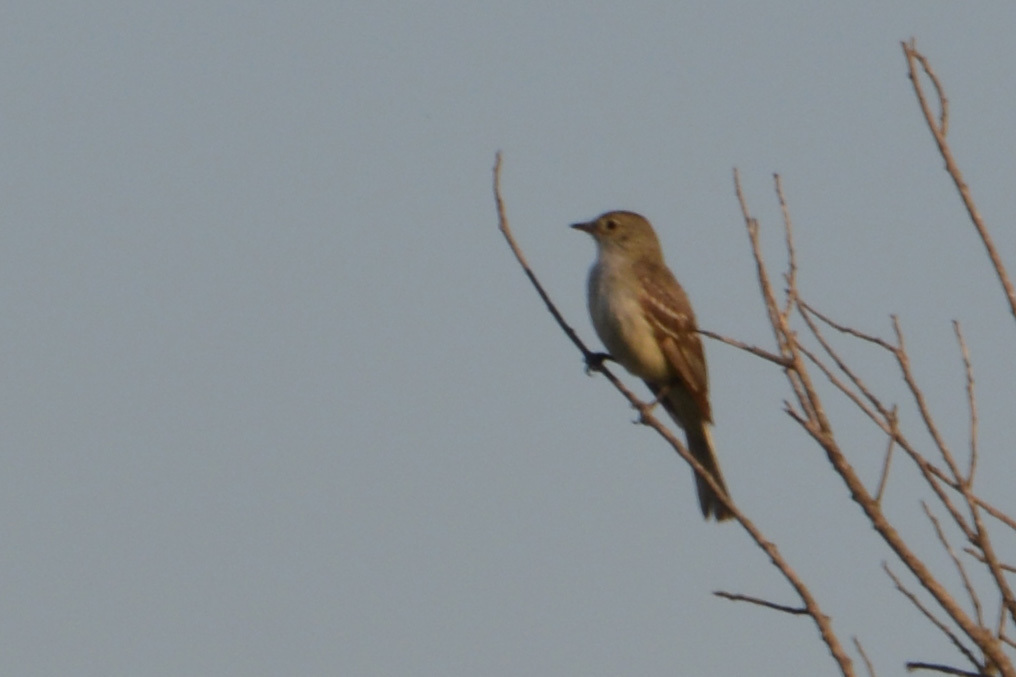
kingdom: Animalia
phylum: Chordata
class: Aves
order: Passeriformes
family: Tyrannidae
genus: Elaenia
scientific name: Elaenia parvirostris
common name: Small-billed elaenia
